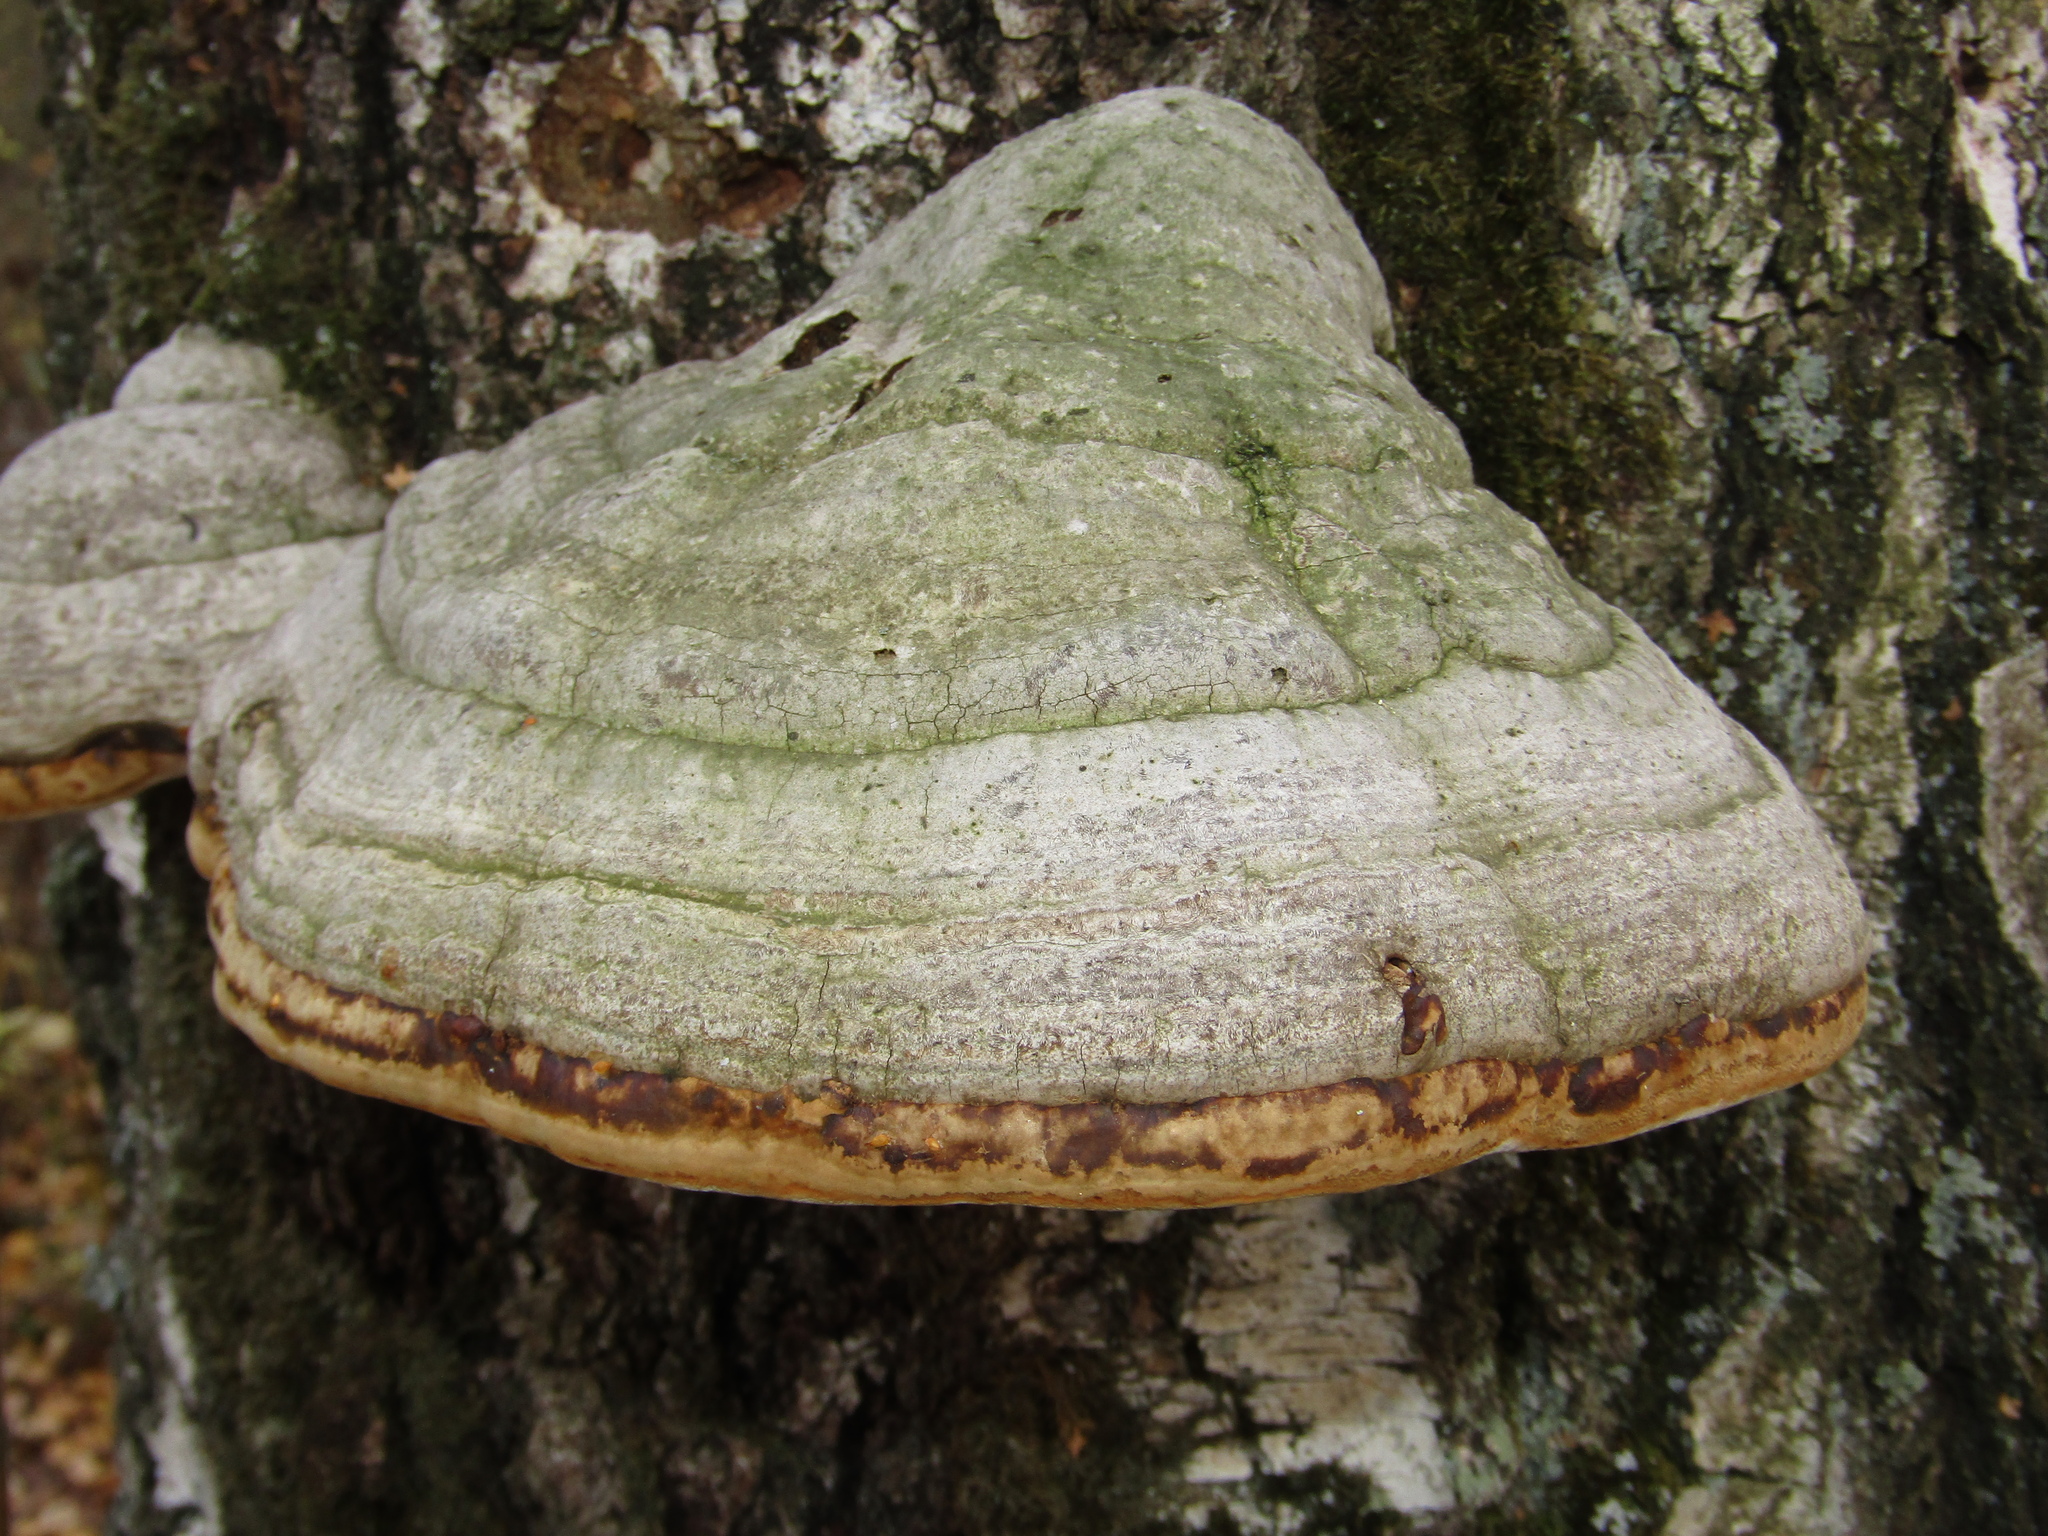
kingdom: Fungi
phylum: Basidiomycota
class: Agaricomycetes
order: Polyporales
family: Polyporaceae
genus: Fomes
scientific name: Fomes fomentarius
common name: Hoof fungus
